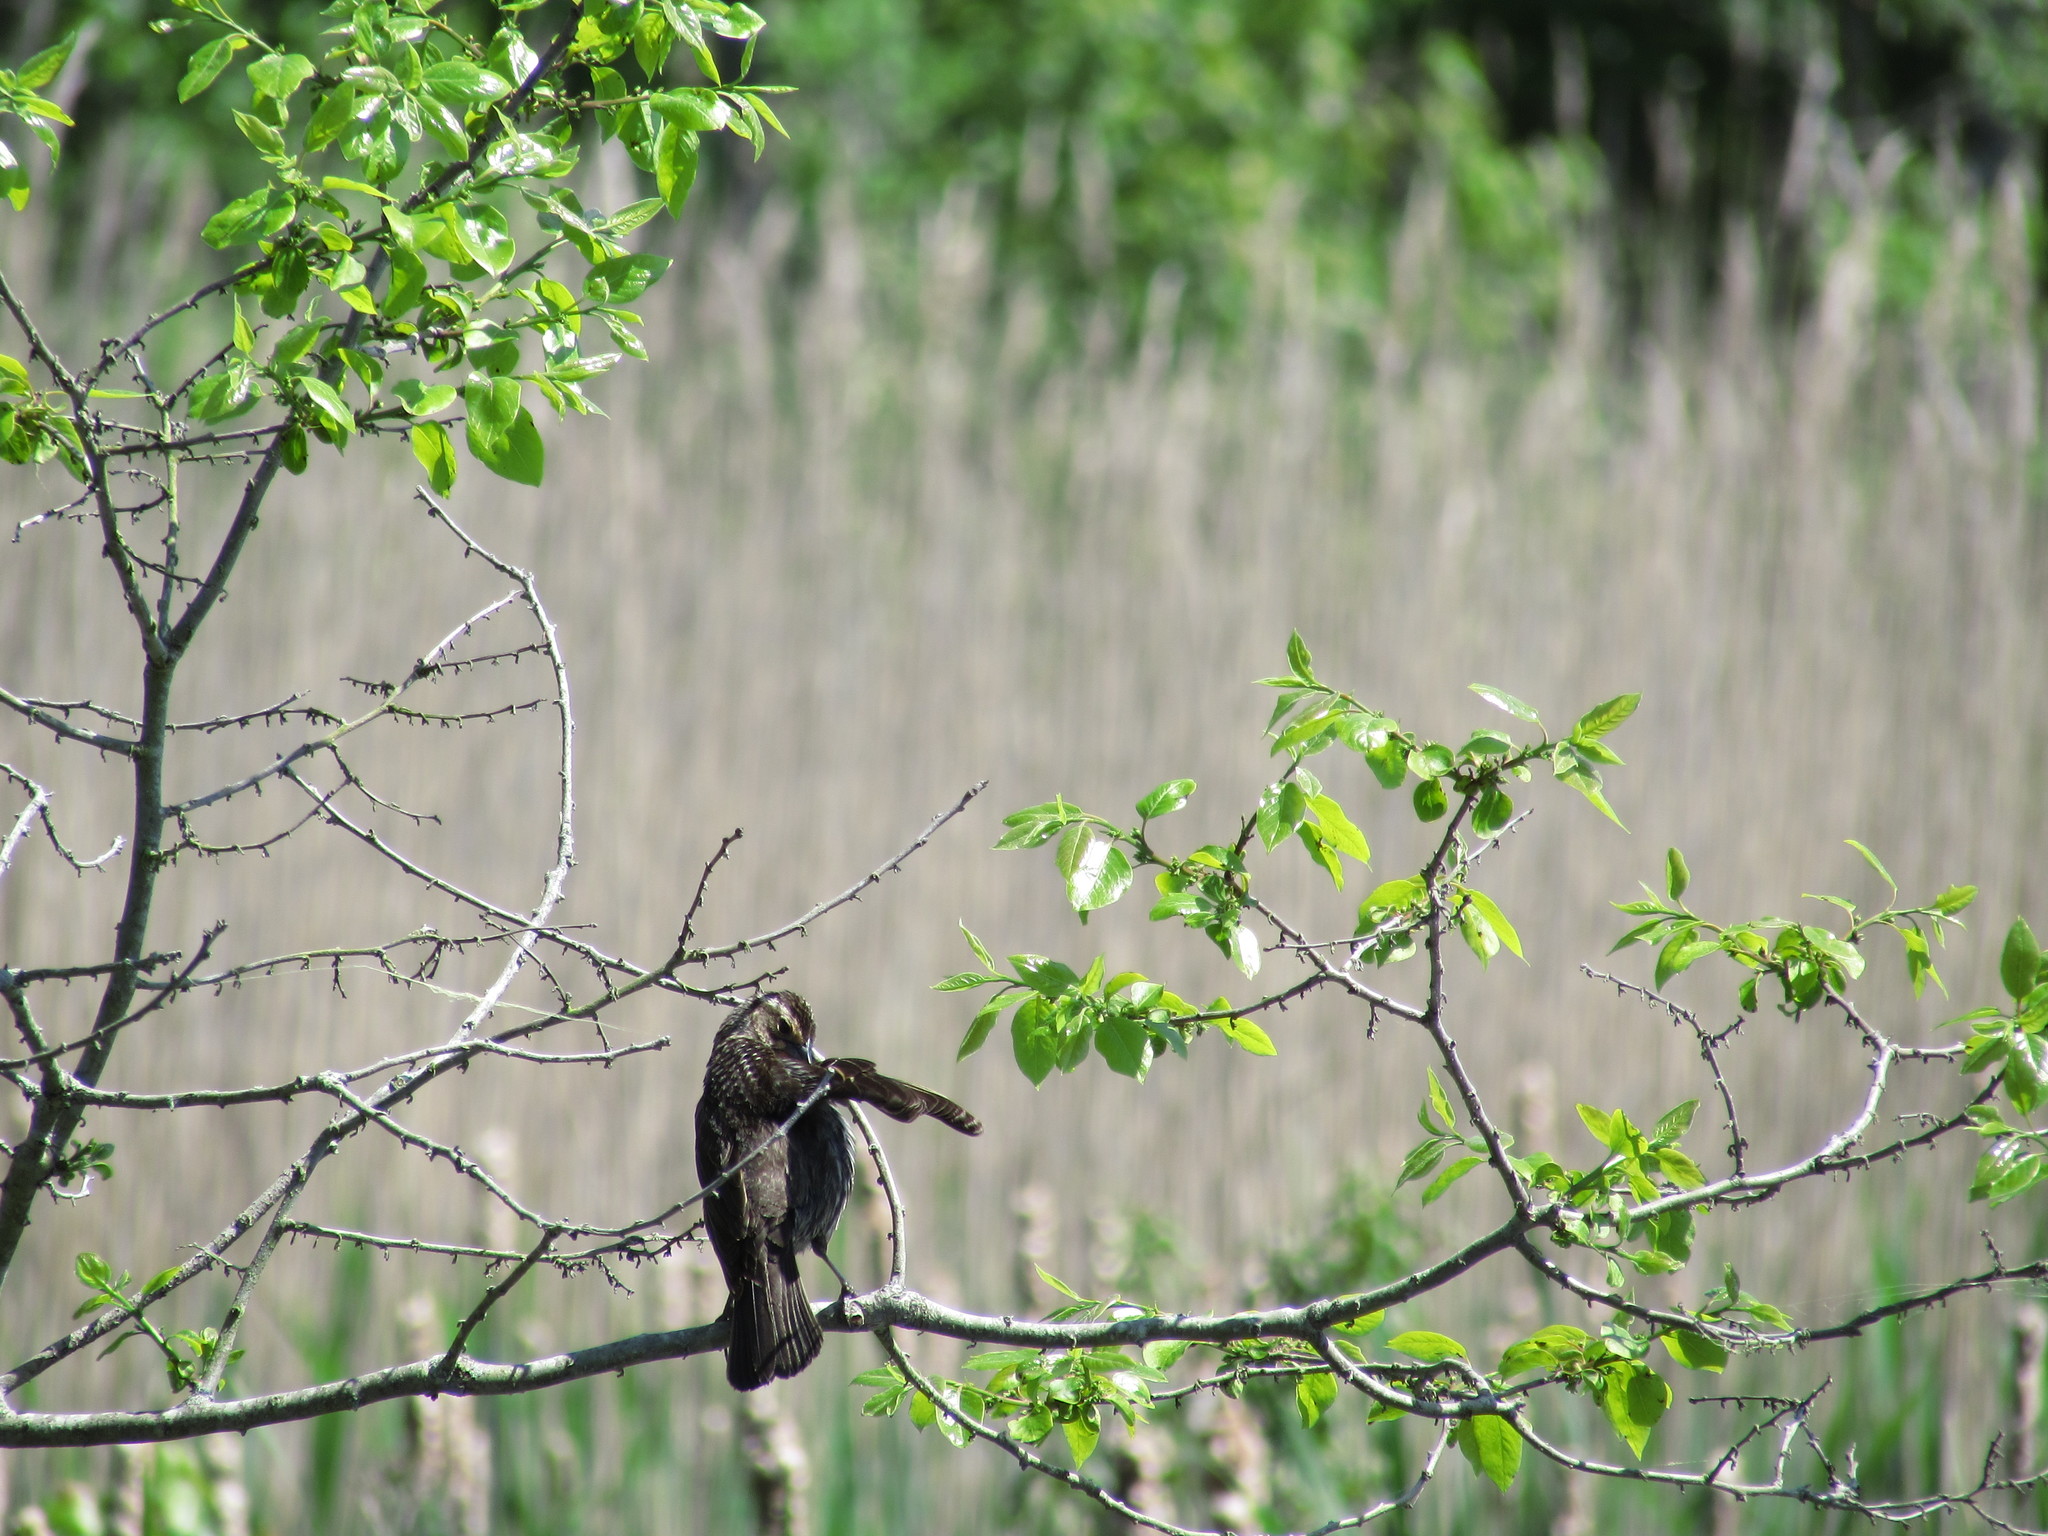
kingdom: Animalia
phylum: Chordata
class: Aves
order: Passeriformes
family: Icteridae
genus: Agelaius
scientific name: Agelaius phoeniceus
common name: Red-winged blackbird
